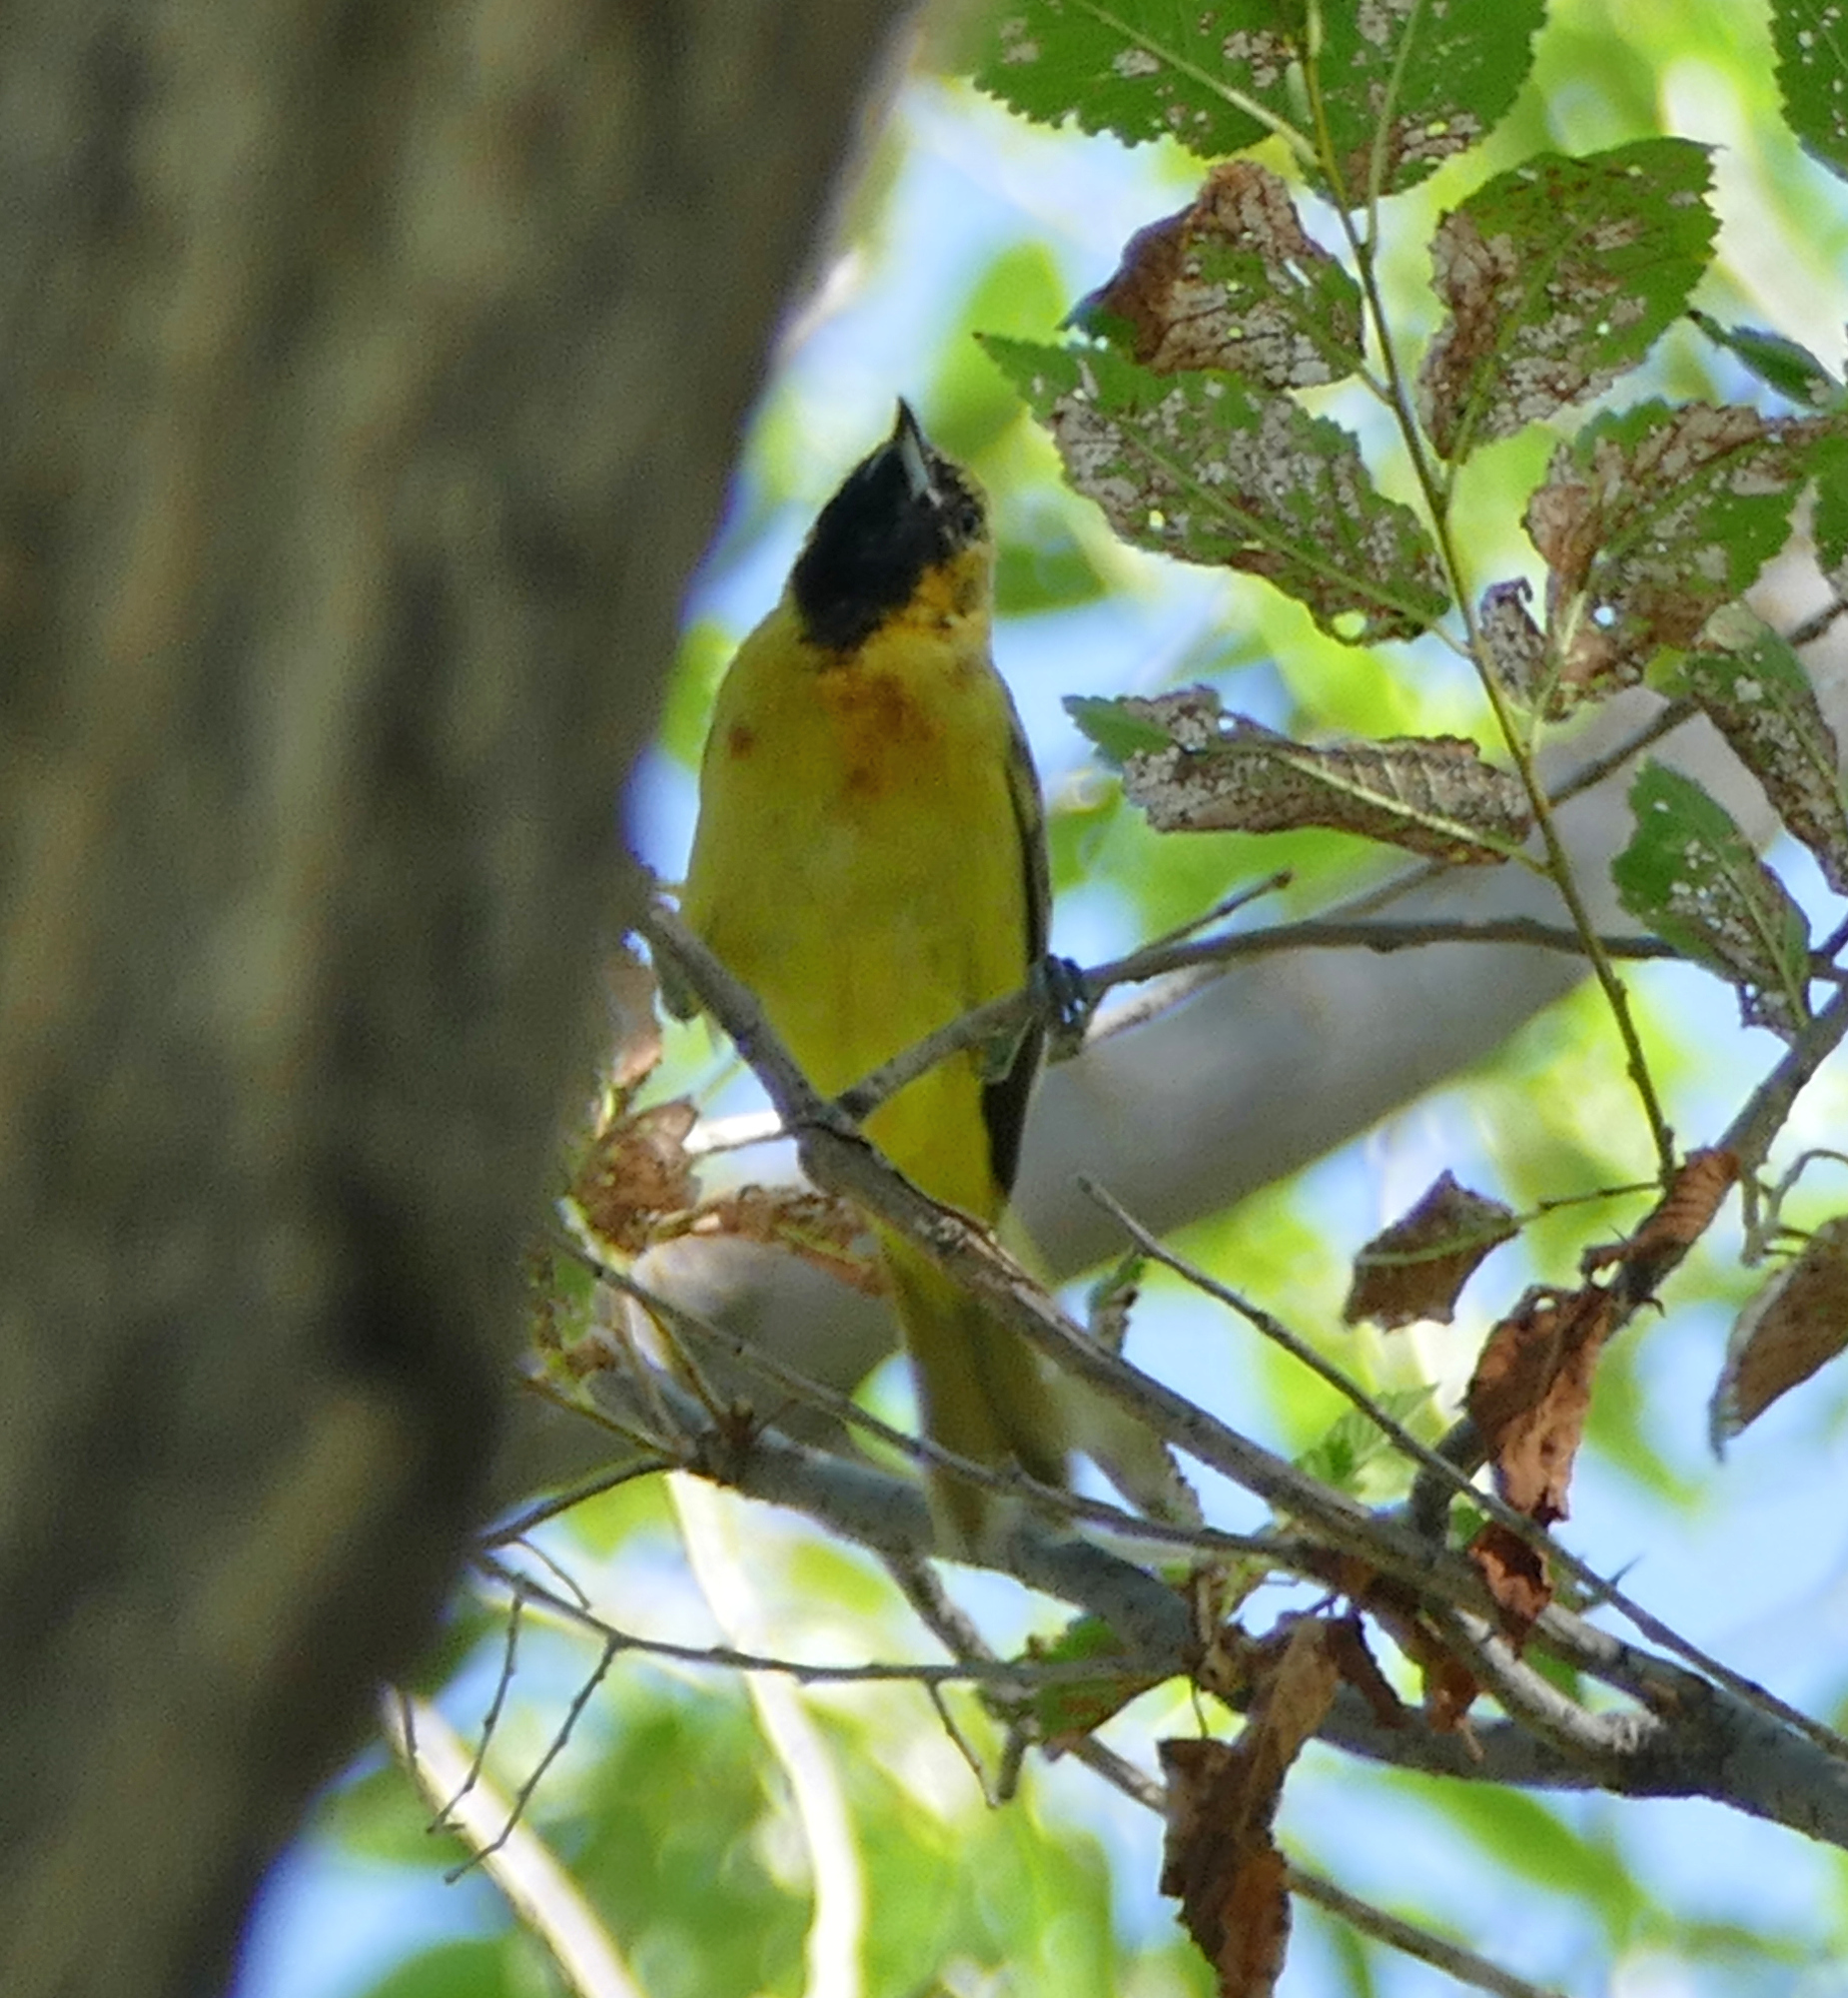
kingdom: Animalia
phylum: Chordata
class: Aves
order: Passeriformes
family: Icteridae
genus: Icterus
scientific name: Icterus spurius
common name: Orchard oriole
